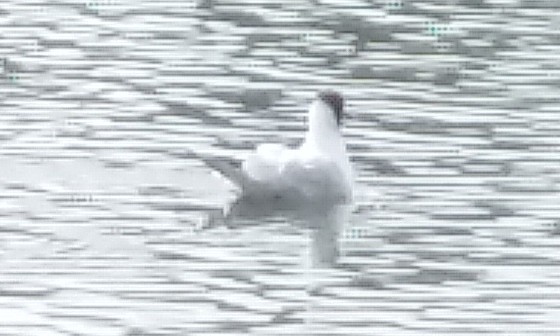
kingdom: Animalia
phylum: Chordata
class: Aves
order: Charadriiformes
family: Laridae
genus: Chroicocephalus
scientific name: Chroicocephalus ridibundus
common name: Black-headed gull
